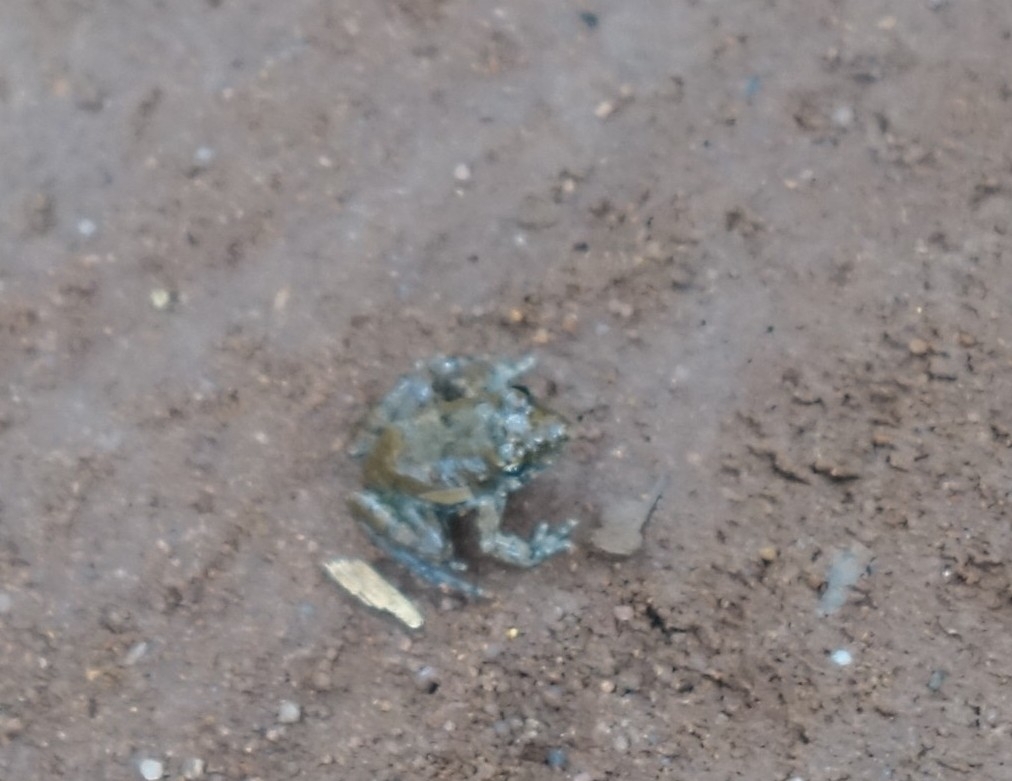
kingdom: Animalia
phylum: Chordata
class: Amphibia
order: Anura
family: Phrynobatrachidae
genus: Phrynobatrachus
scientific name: Phrynobatrachus mababiensis
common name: Dwarf puddle frog
